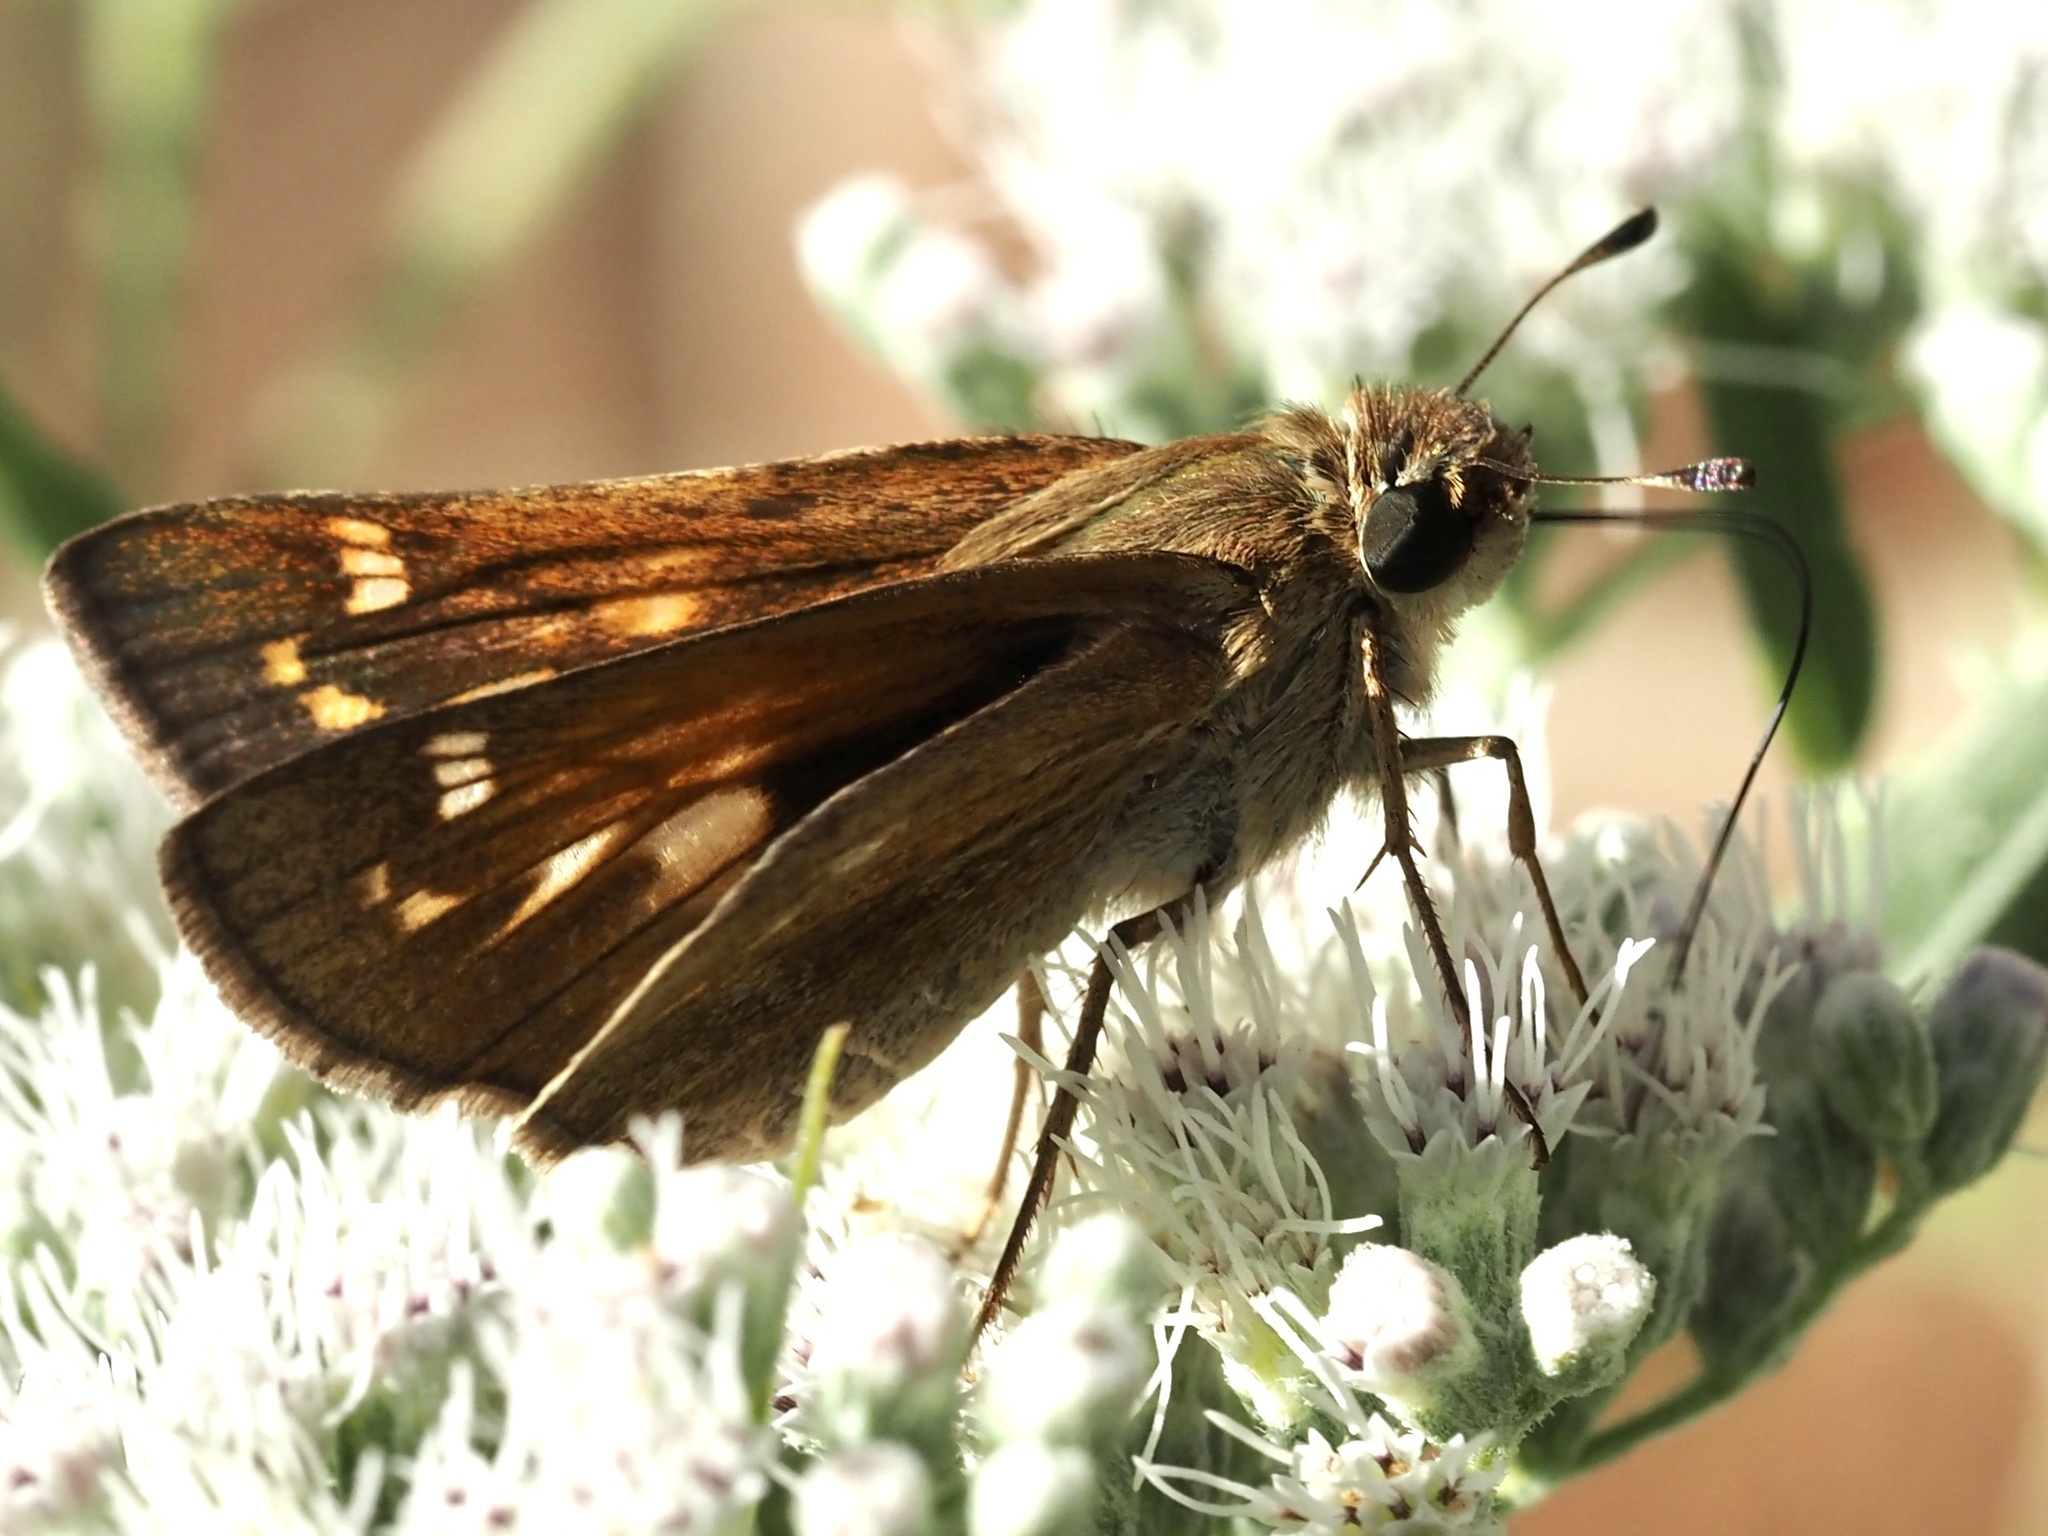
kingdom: Animalia
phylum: Arthropoda
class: Insecta
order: Lepidoptera
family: Hesperiidae
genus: Atalopedes
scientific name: Atalopedes
